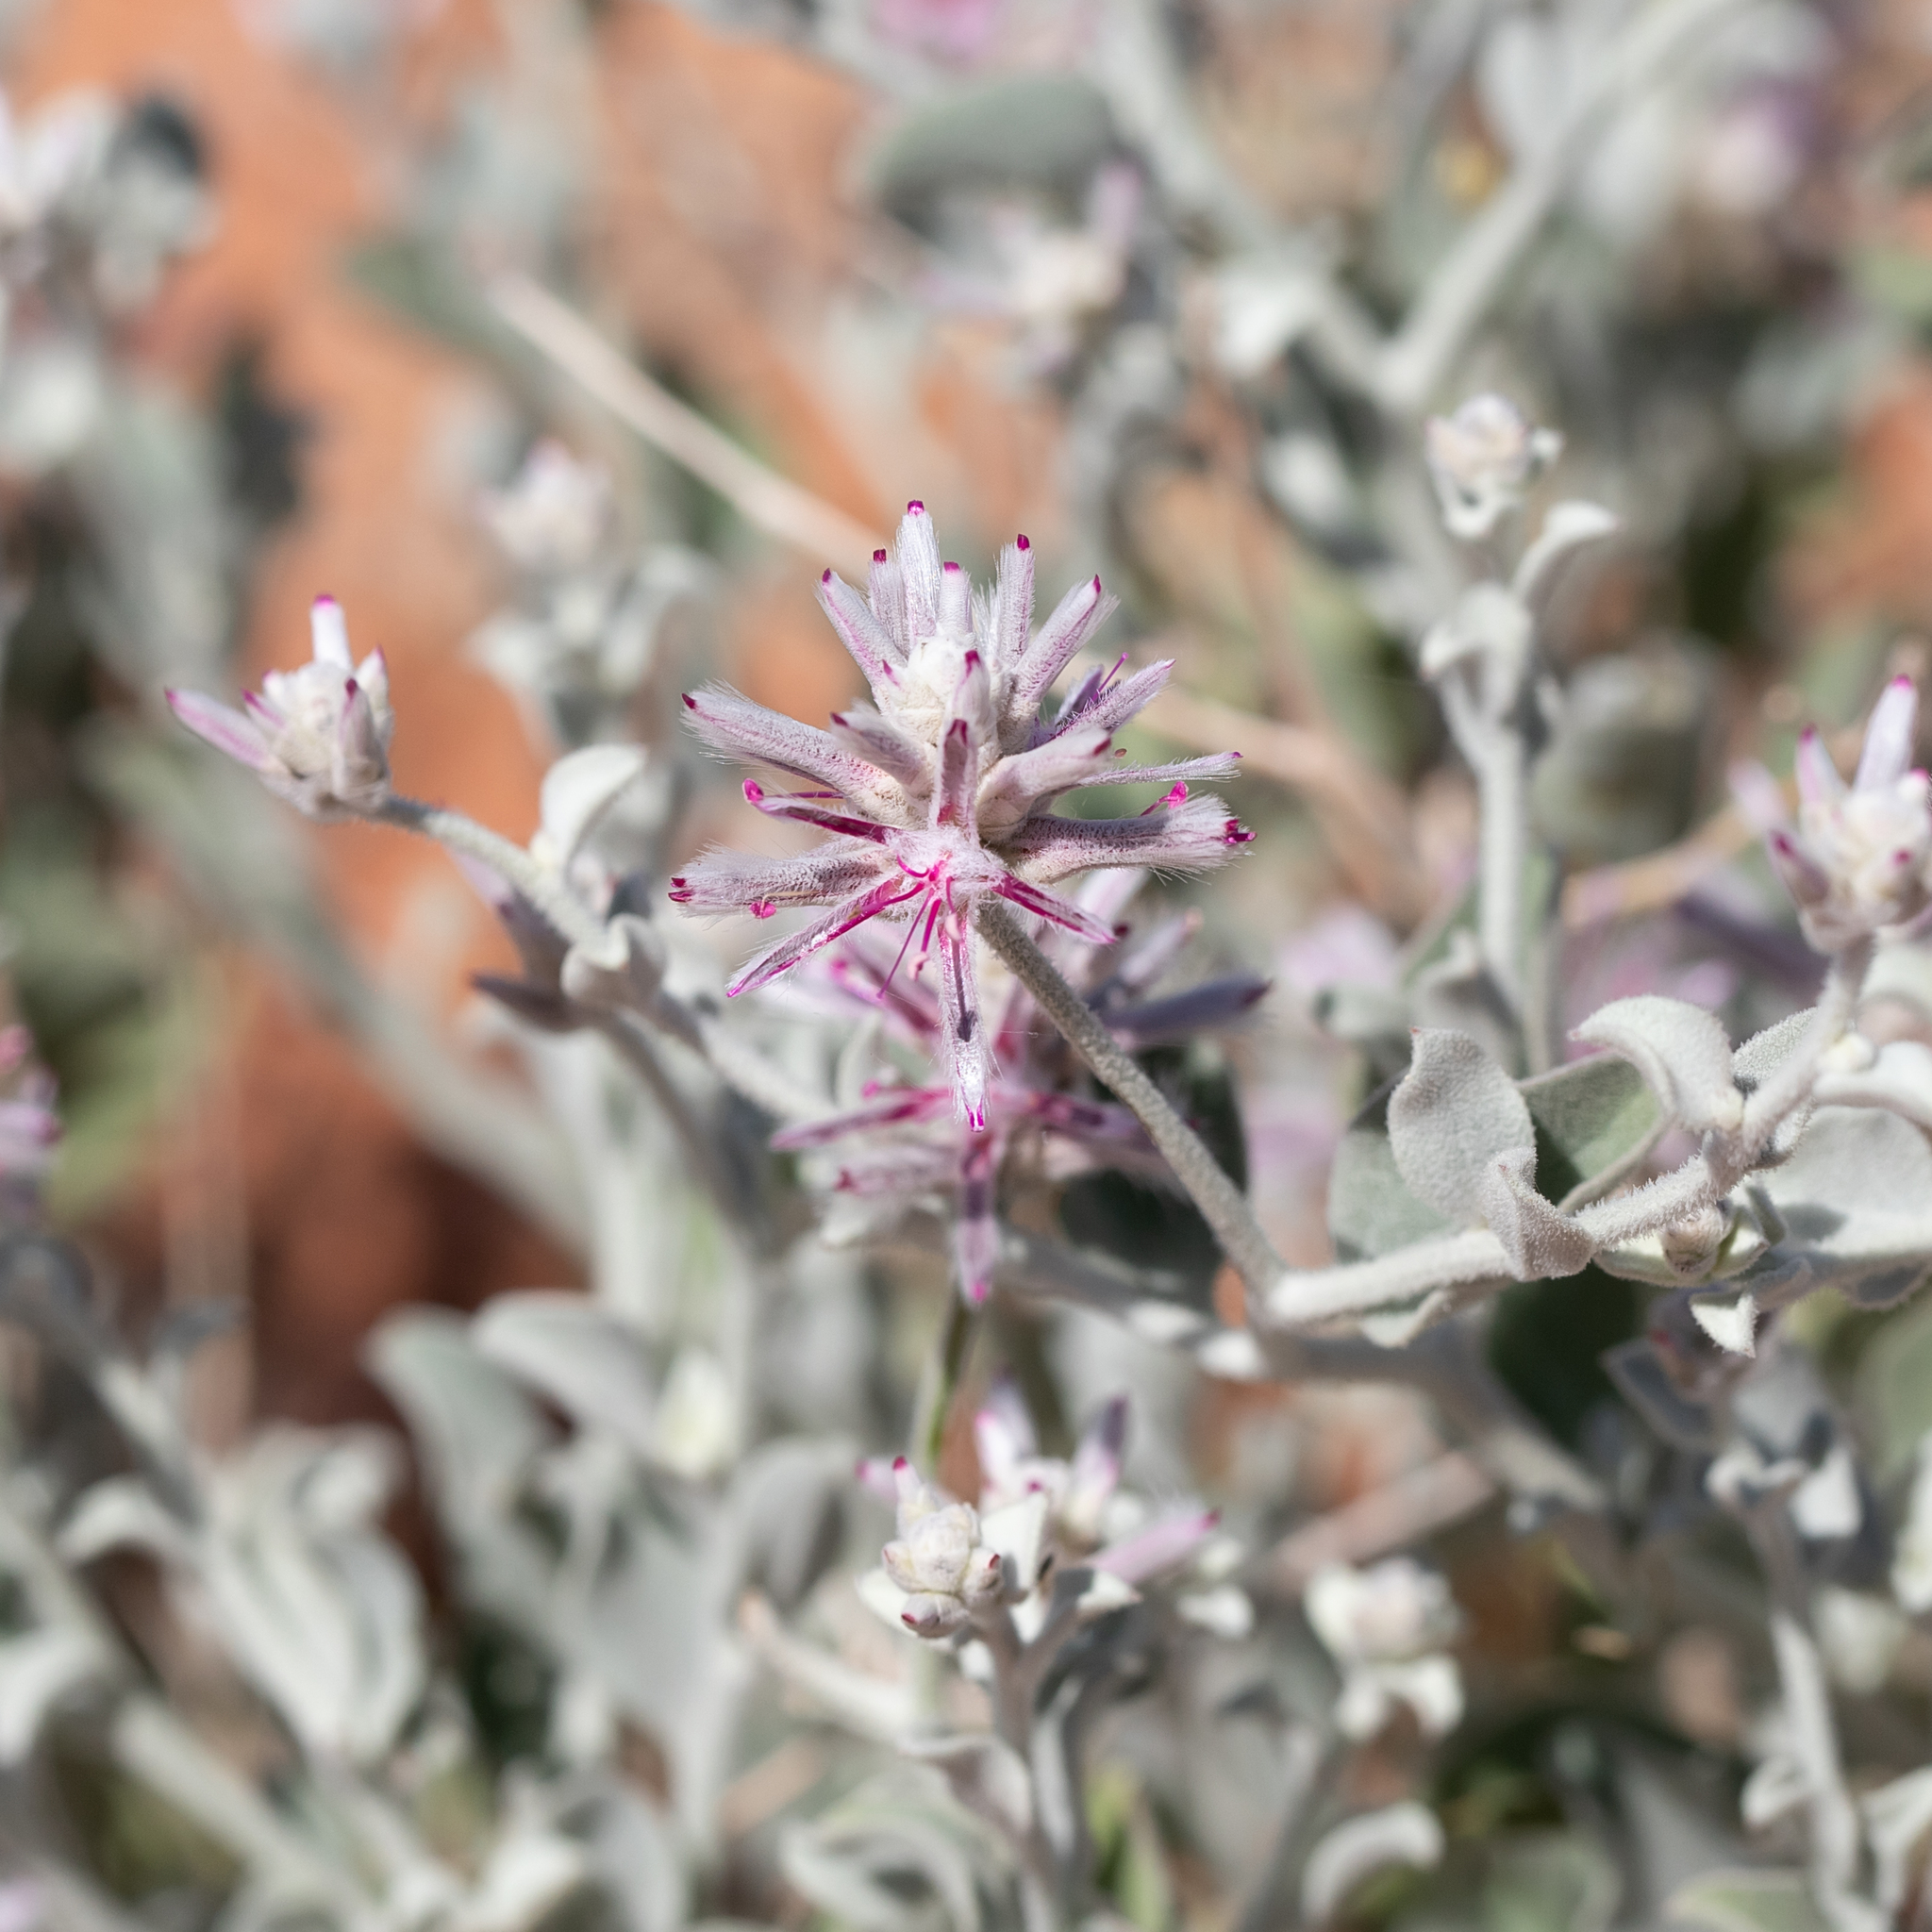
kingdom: Plantae
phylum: Tracheophyta
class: Magnoliopsida
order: Caryophyllales
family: Amaranthaceae
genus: Ptilotus
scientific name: Ptilotus sessilifolius
